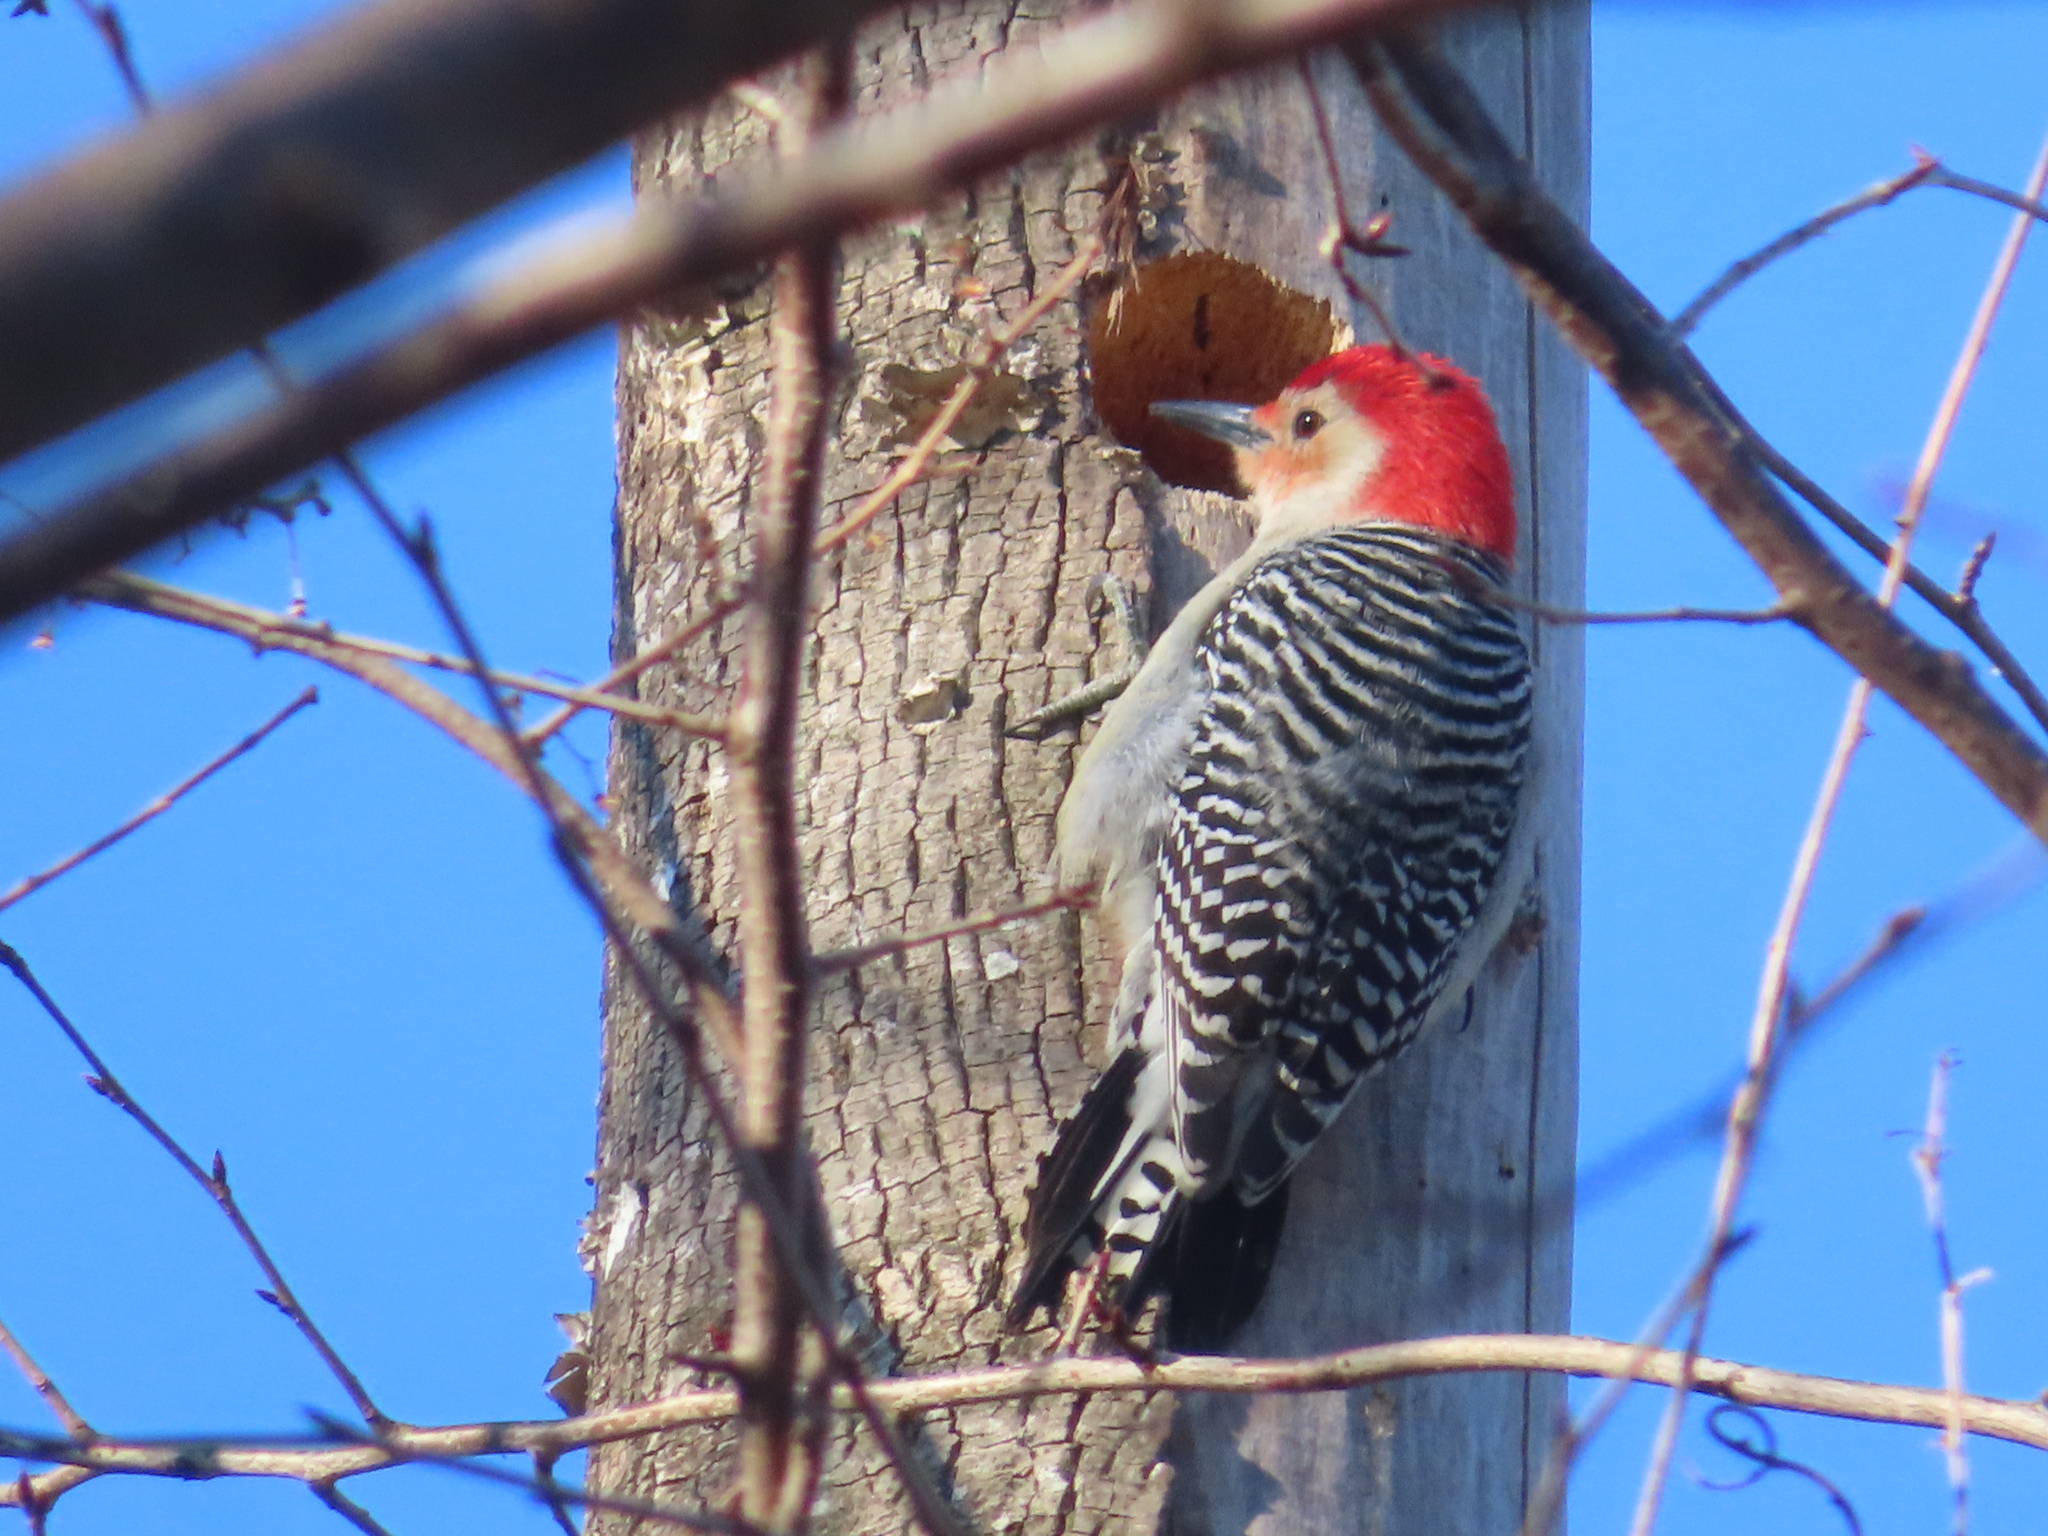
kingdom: Animalia
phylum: Chordata
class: Aves
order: Piciformes
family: Picidae
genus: Melanerpes
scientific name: Melanerpes carolinus
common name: Red-bellied woodpecker
